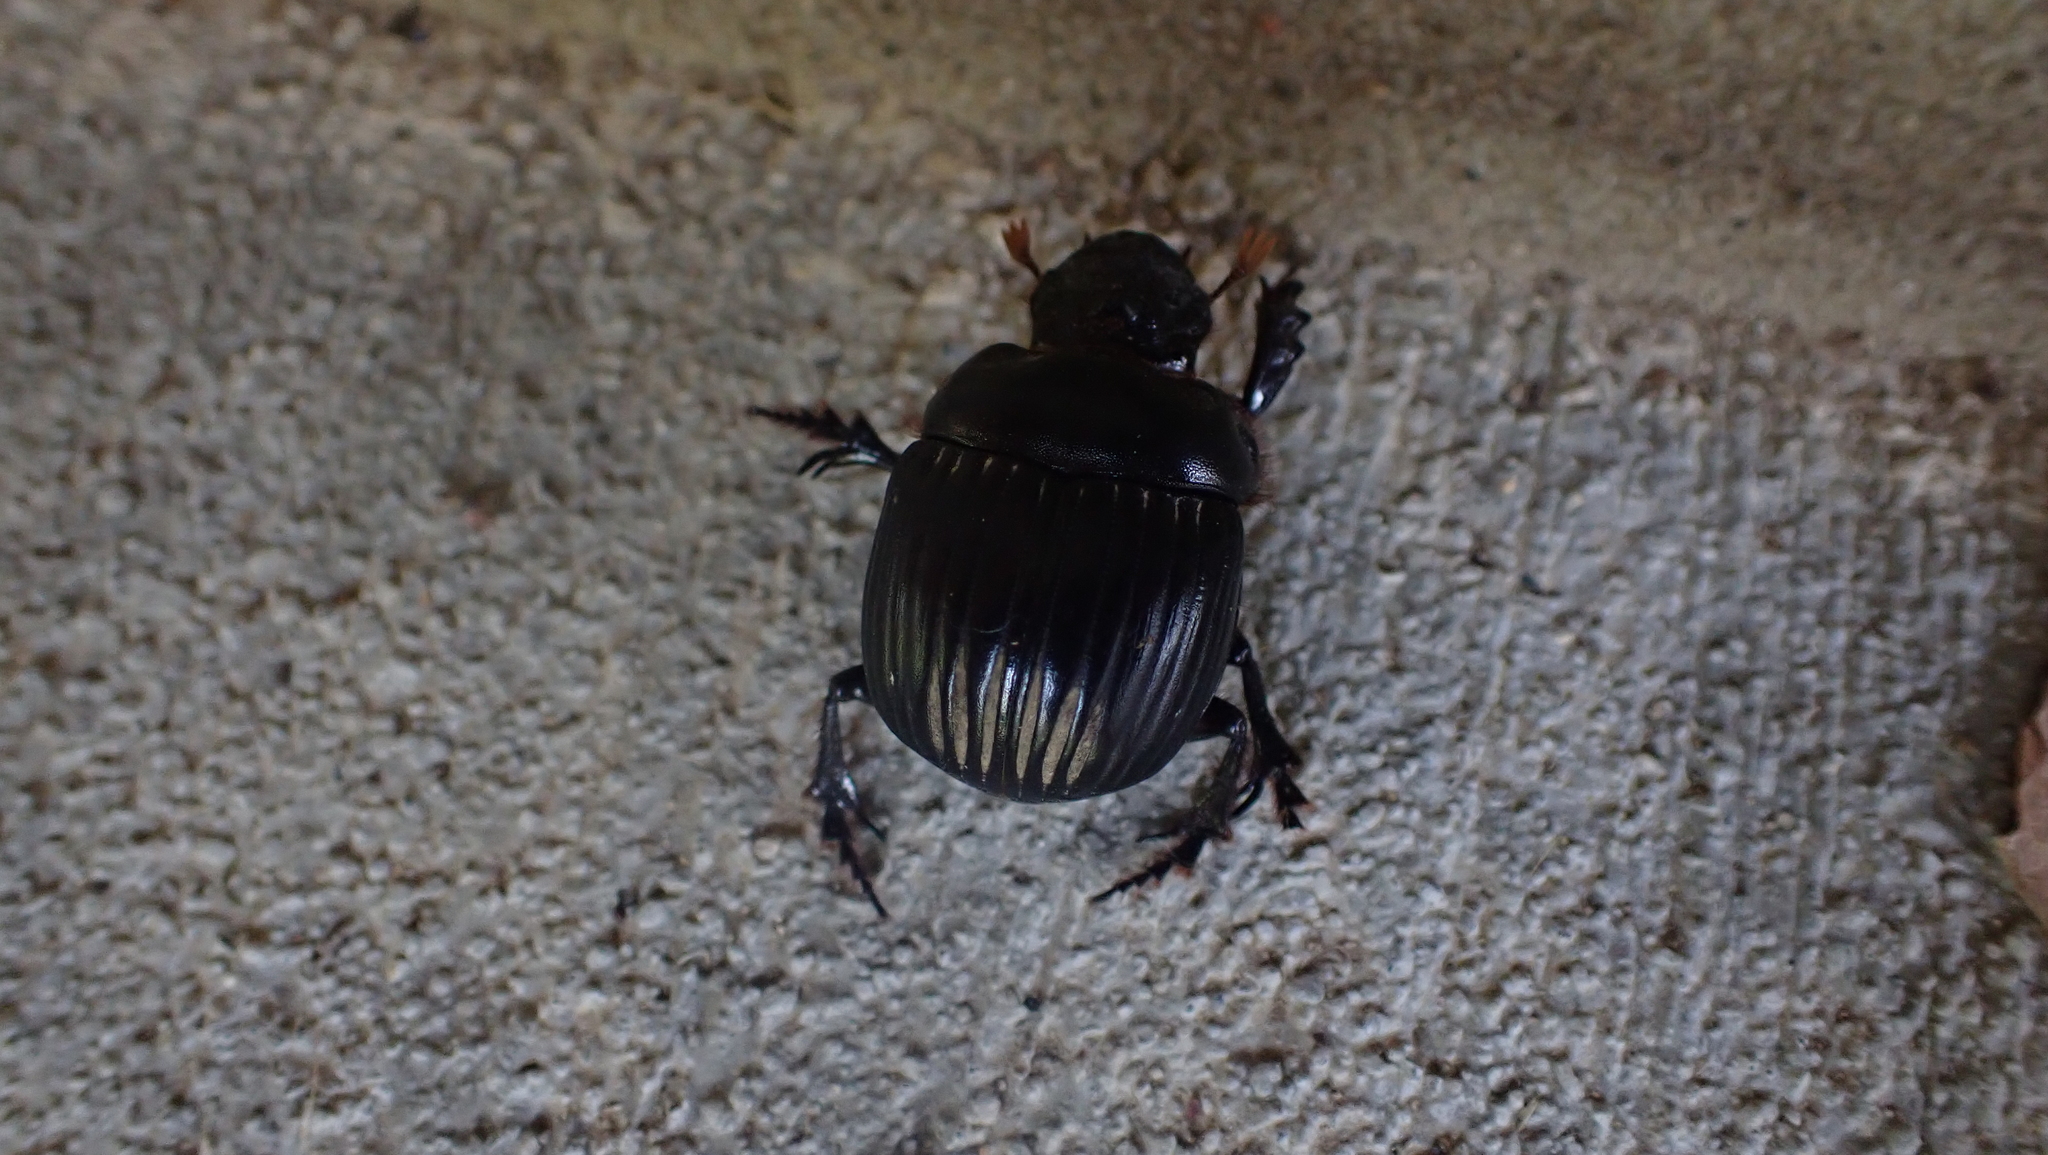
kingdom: Animalia
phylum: Arthropoda
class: Insecta
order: Coleoptera
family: Scarabaeidae
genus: Dichotomius
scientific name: Dichotomius carolinus
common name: Carolina copris
